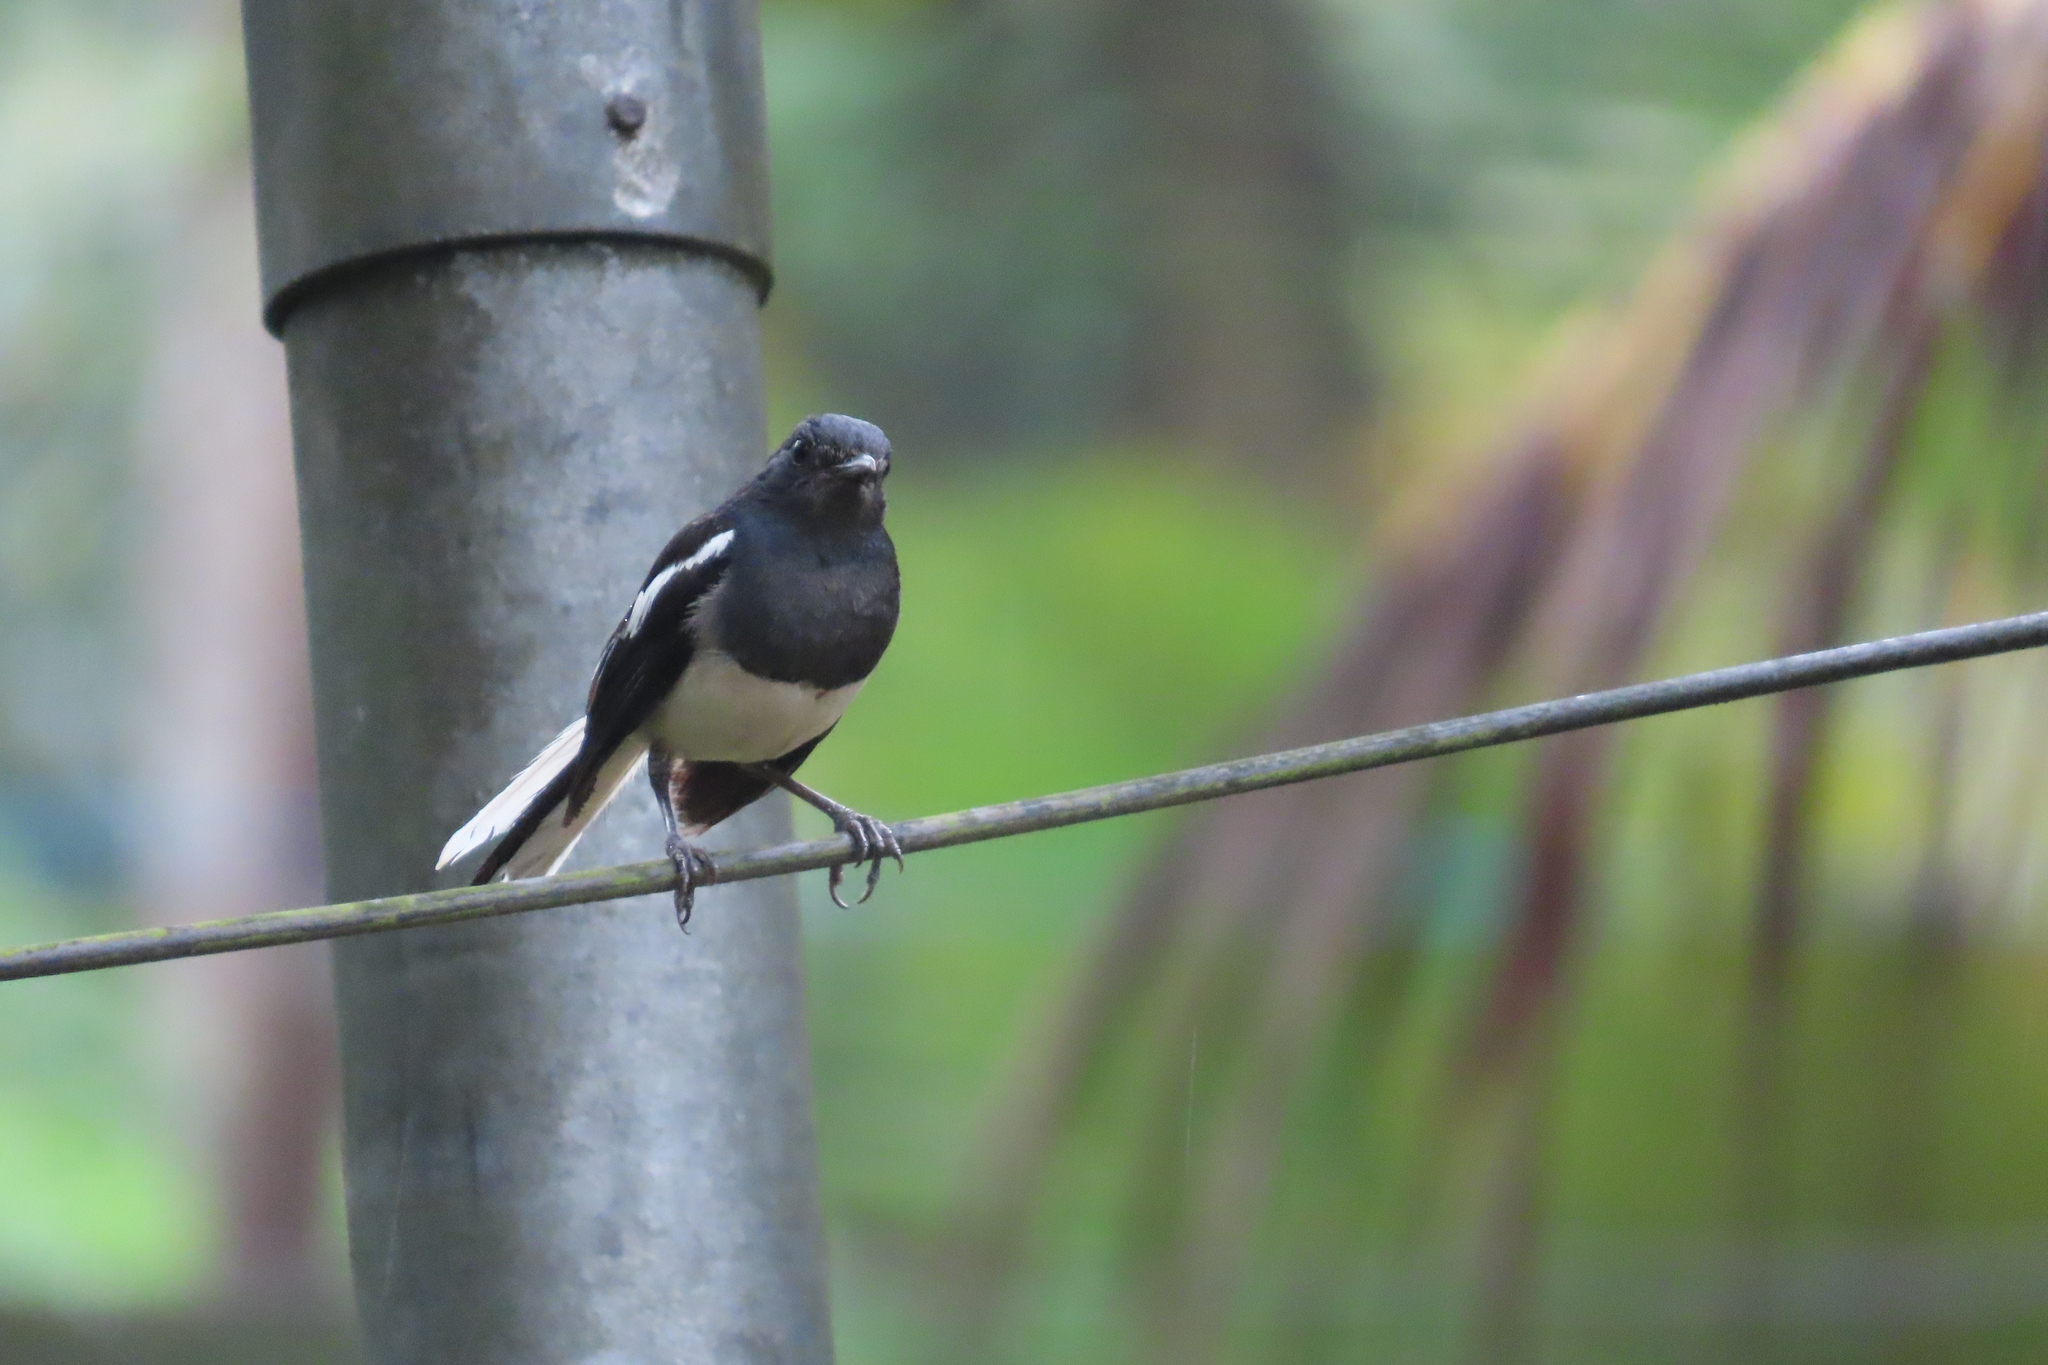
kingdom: Animalia
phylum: Chordata
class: Aves
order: Passeriformes
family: Muscicapidae
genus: Copsychus
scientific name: Copsychus saularis
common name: Oriental magpie-robin
